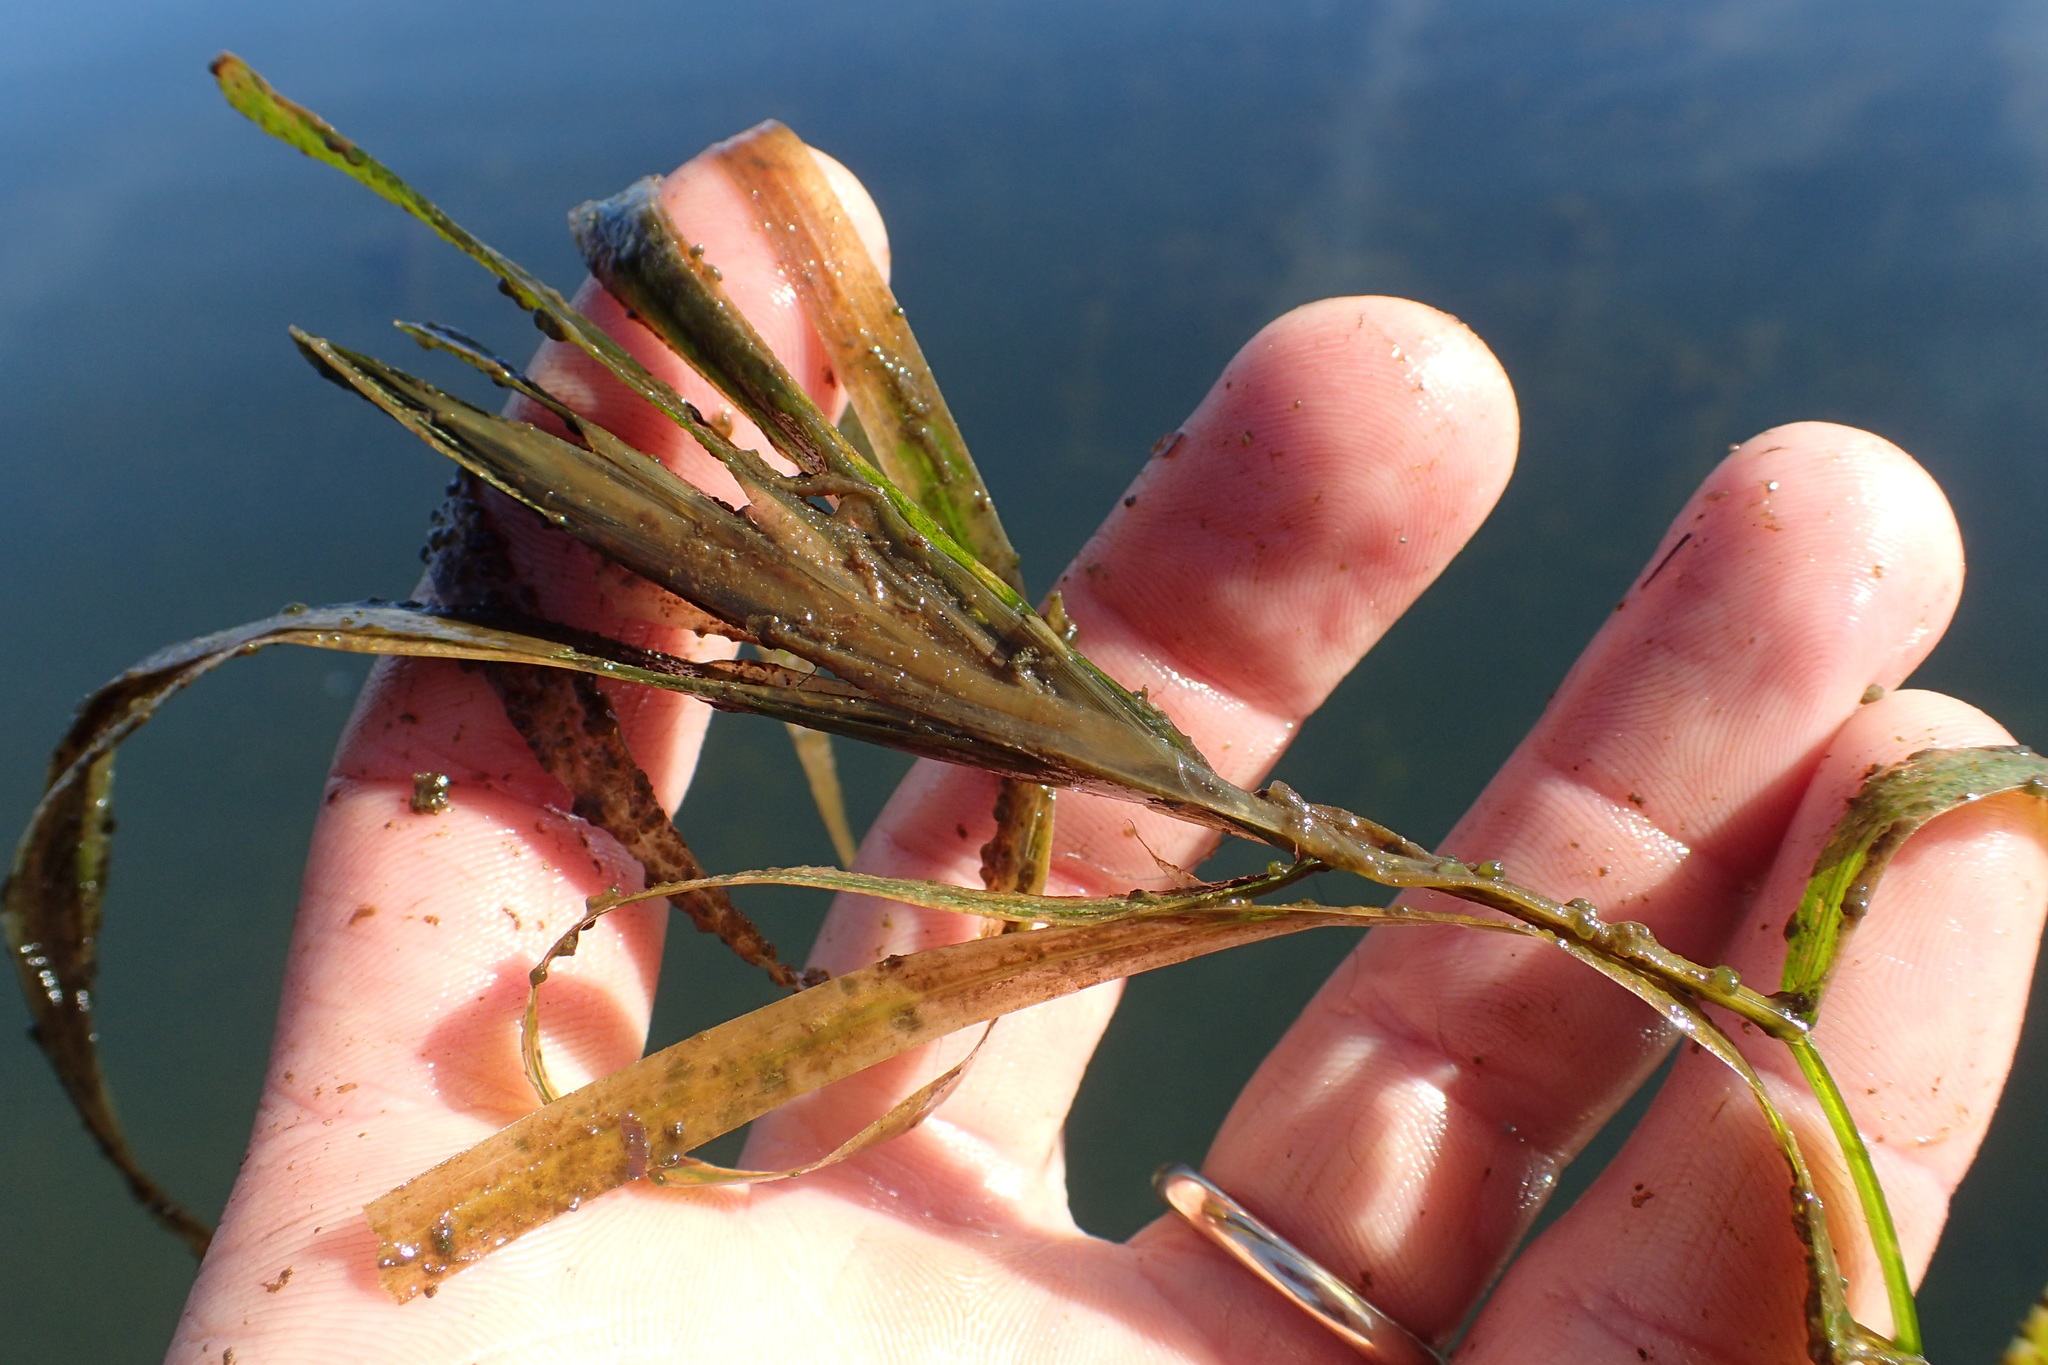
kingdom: Plantae
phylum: Tracheophyta
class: Liliopsida
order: Alismatales
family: Potamogetonaceae
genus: Potamogeton
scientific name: Potamogeton zosteriformis
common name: Eelgrass pondweed
